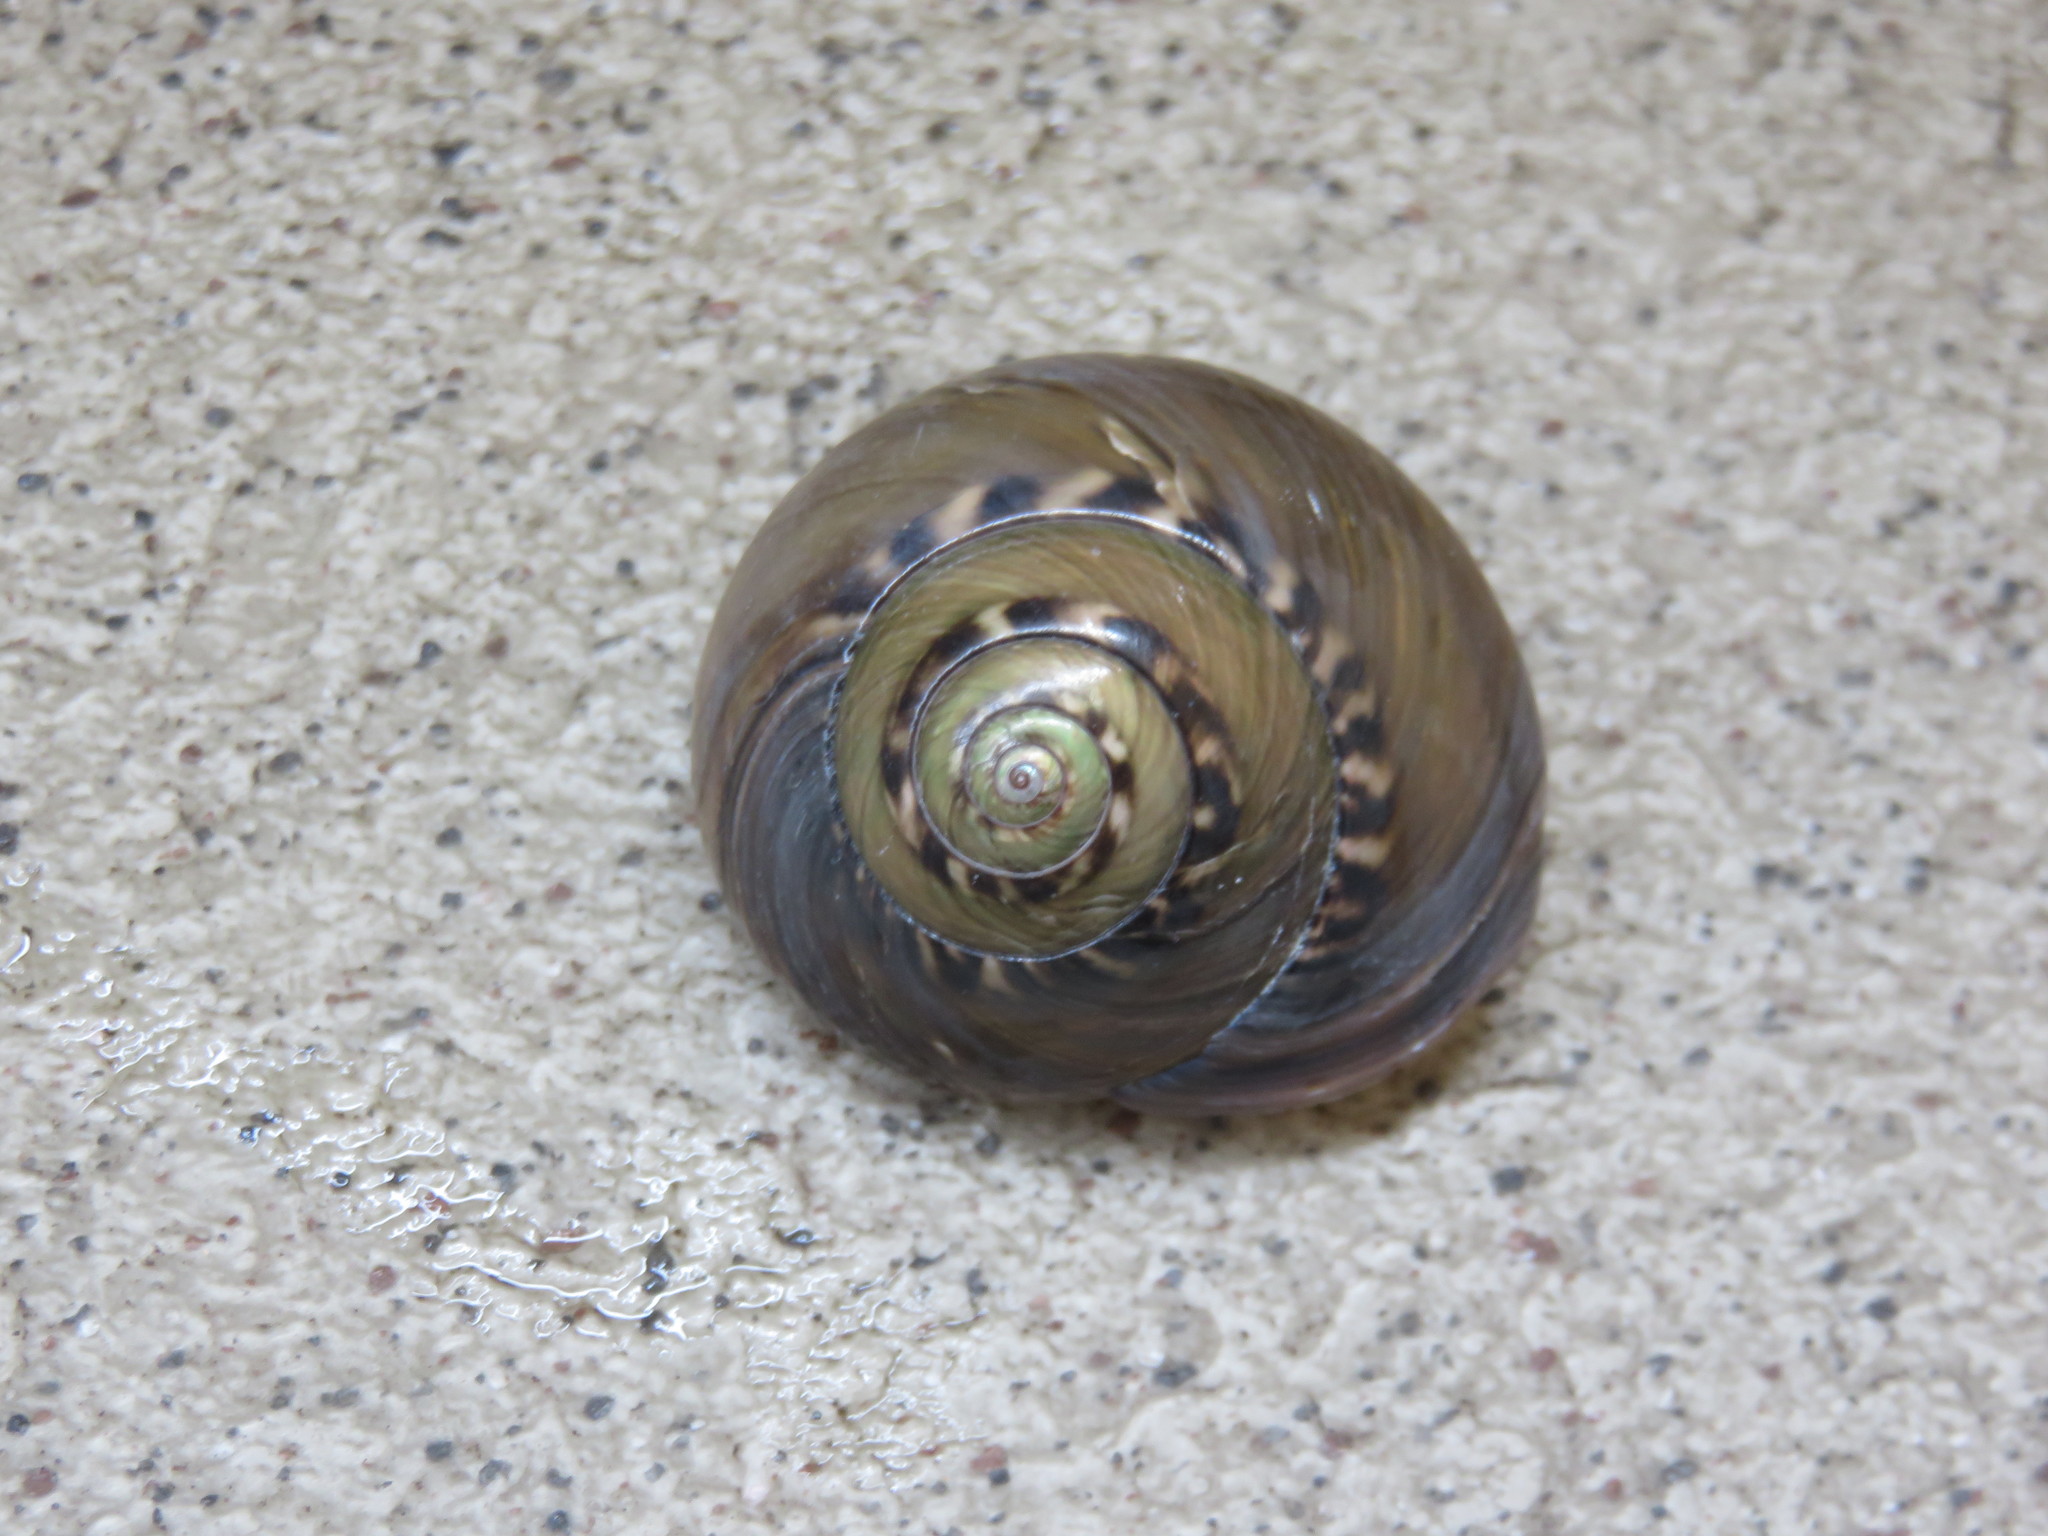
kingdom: Animalia
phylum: Mollusca
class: Gastropoda
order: Trochida
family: Trochidae
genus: Umbonium
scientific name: Umbonium giganteum
